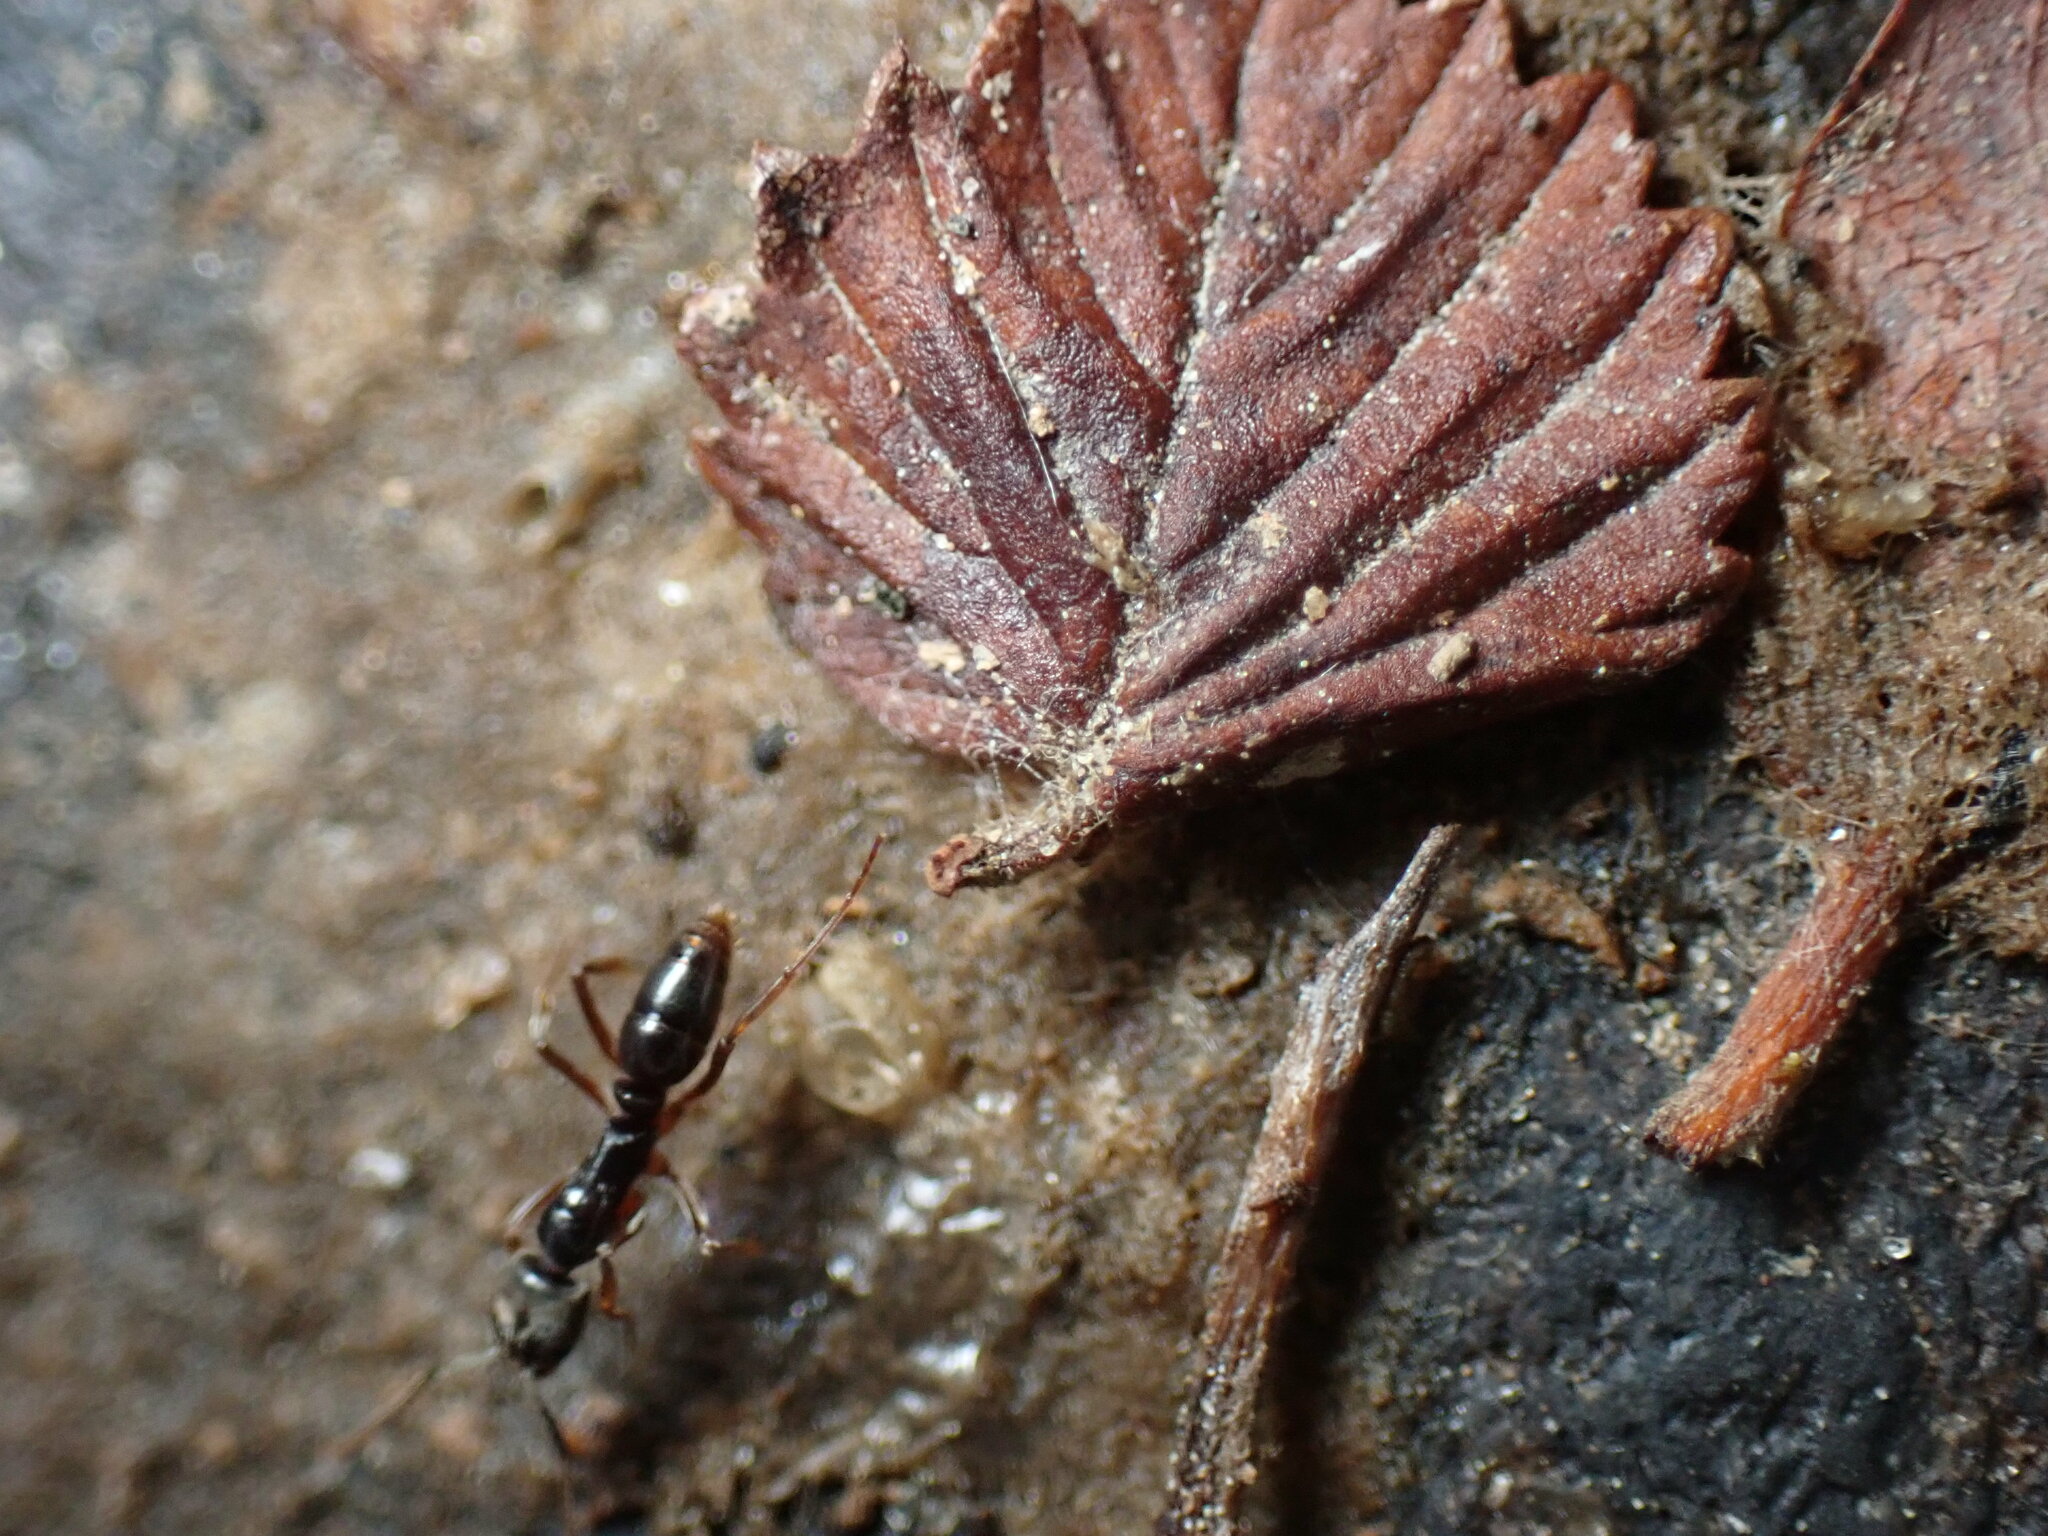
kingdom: Animalia
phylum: Arthropoda
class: Insecta
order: Hymenoptera
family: Formicidae
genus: Pachycondyla
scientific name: Pachycondyla chinensis
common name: Asian needle ant
